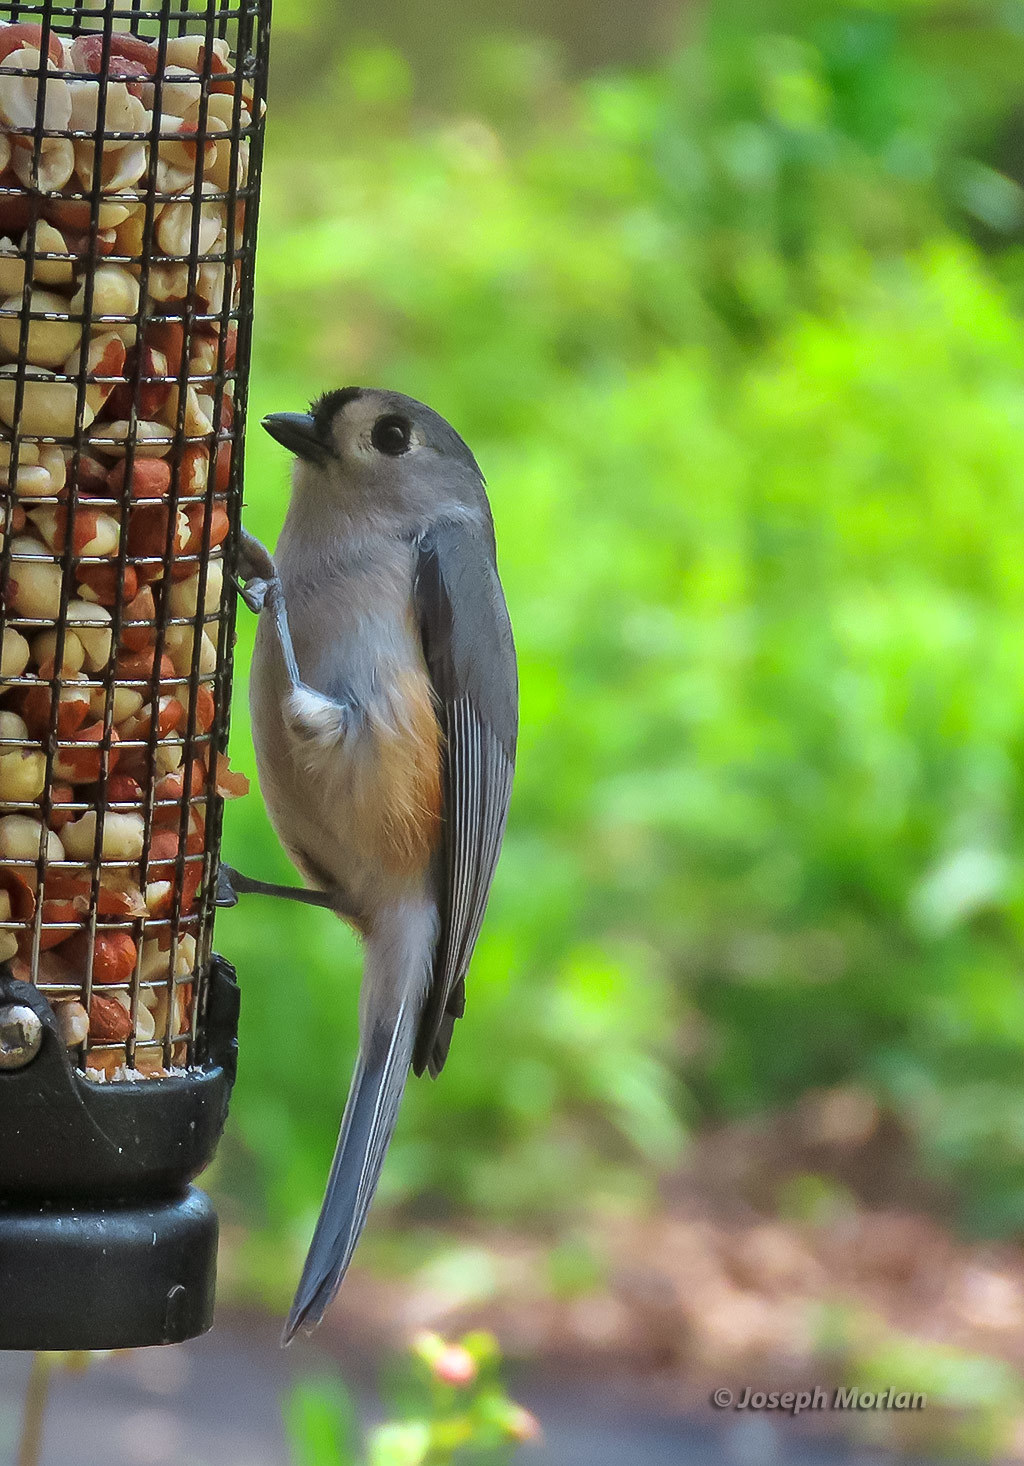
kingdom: Animalia
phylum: Chordata
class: Aves
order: Passeriformes
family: Paridae
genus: Baeolophus
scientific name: Baeolophus bicolor
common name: Tufted titmouse
